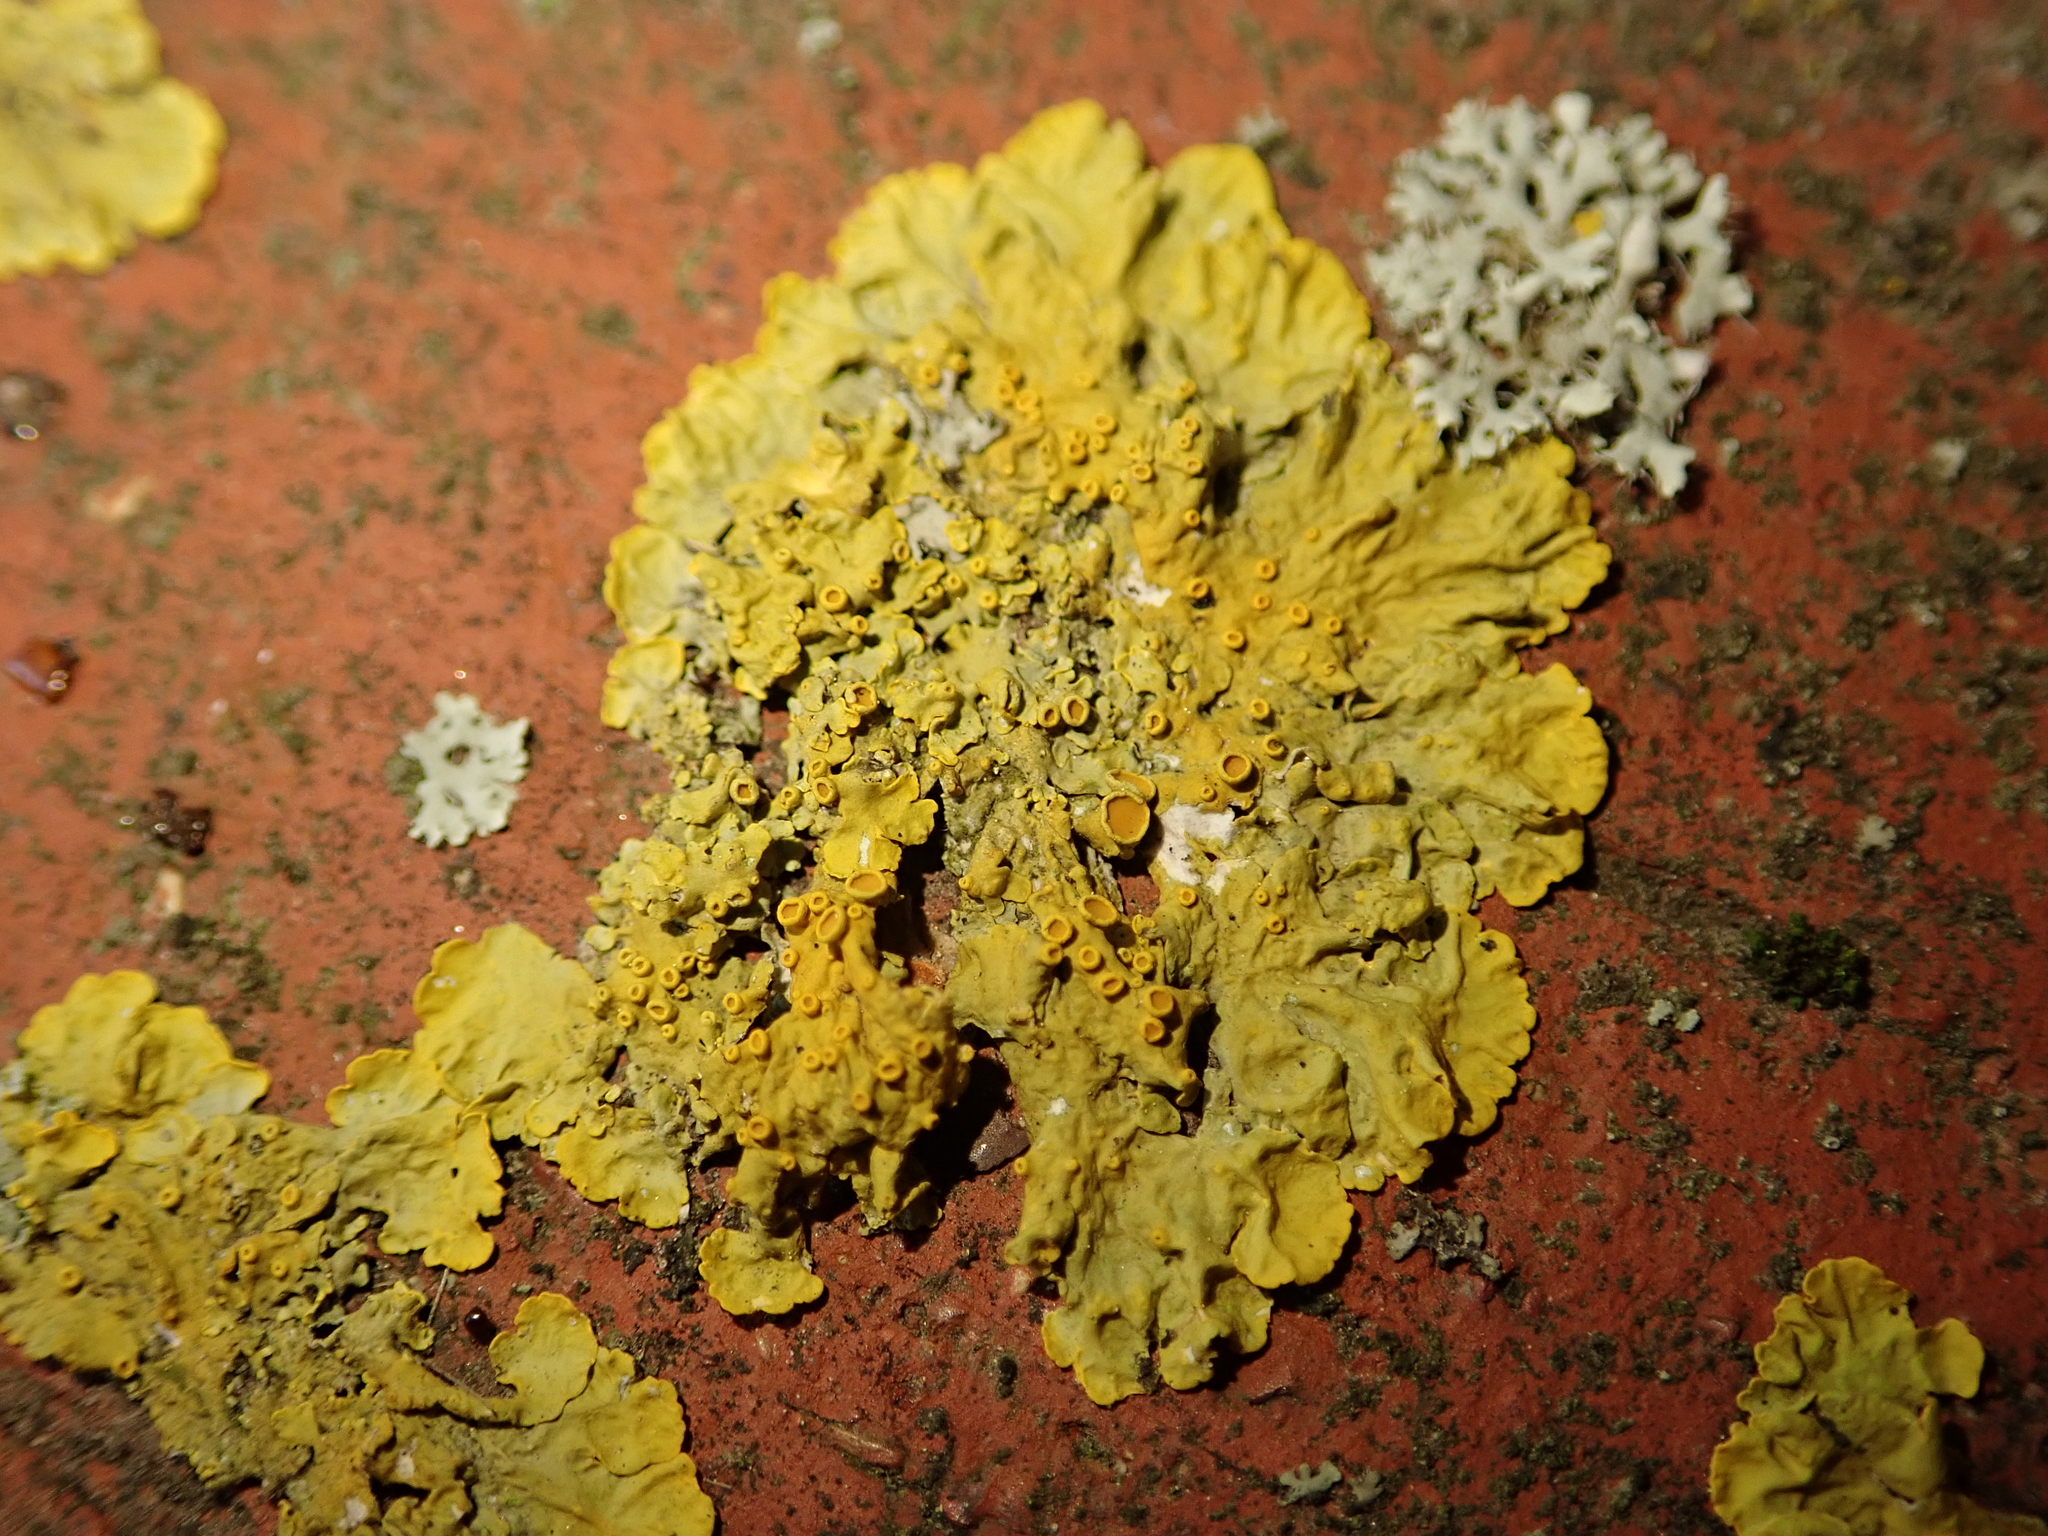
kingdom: Fungi
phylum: Ascomycota
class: Lecanoromycetes
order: Teloschistales
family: Teloschistaceae
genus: Xanthoria
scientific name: Xanthoria parietina
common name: Common orange lichen
